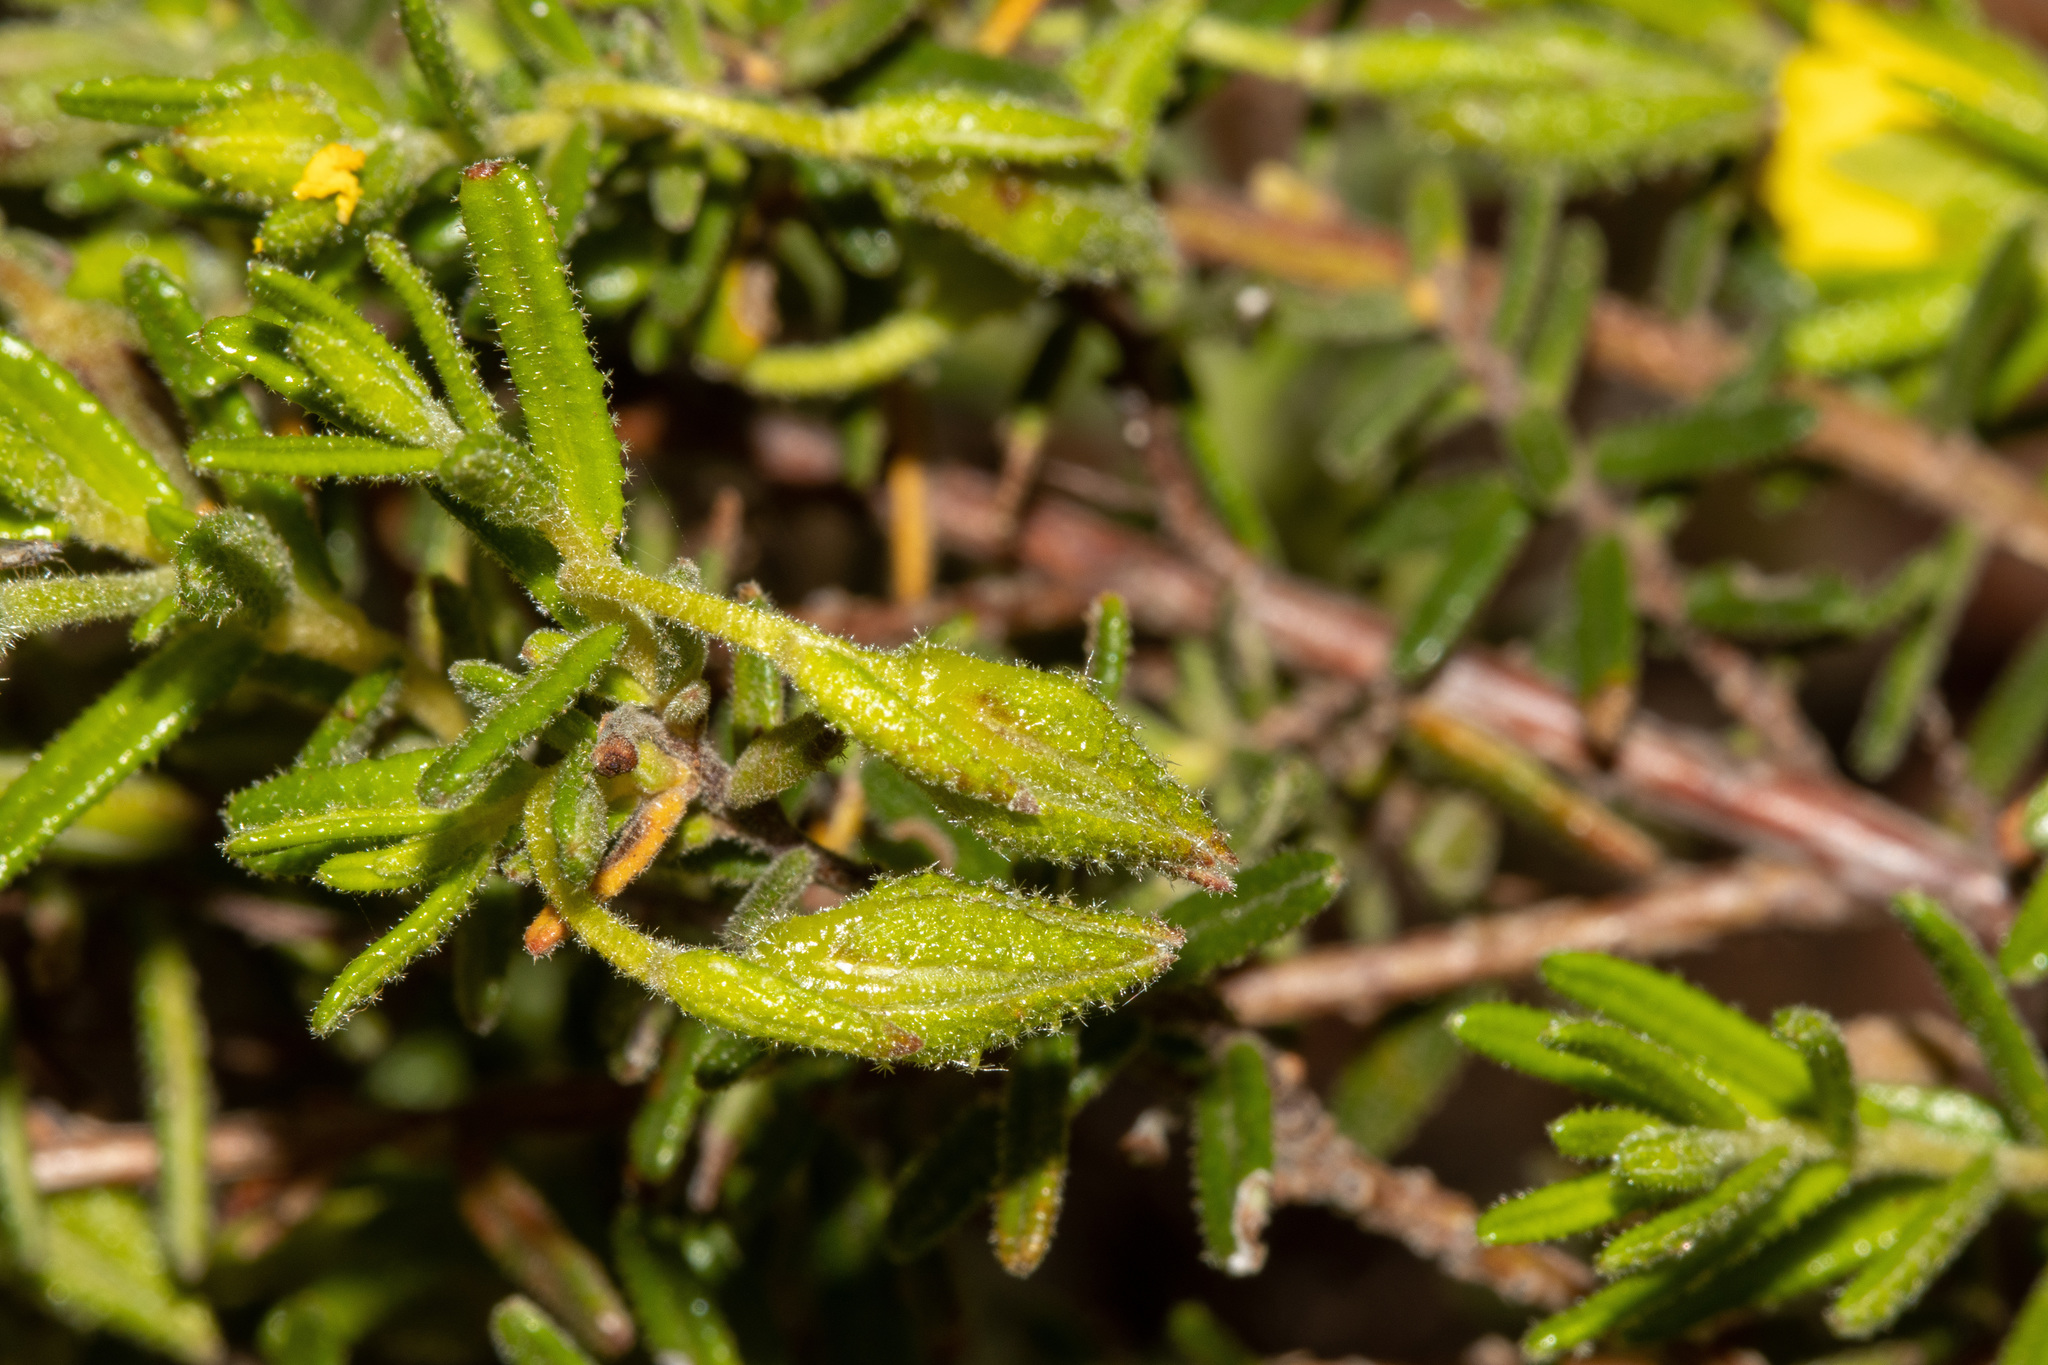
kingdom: Plantae
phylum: Tracheophyta
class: Magnoliopsida
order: Dilleniales
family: Dilleniaceae
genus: Hibbertia
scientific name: Hibbertia glebosa
